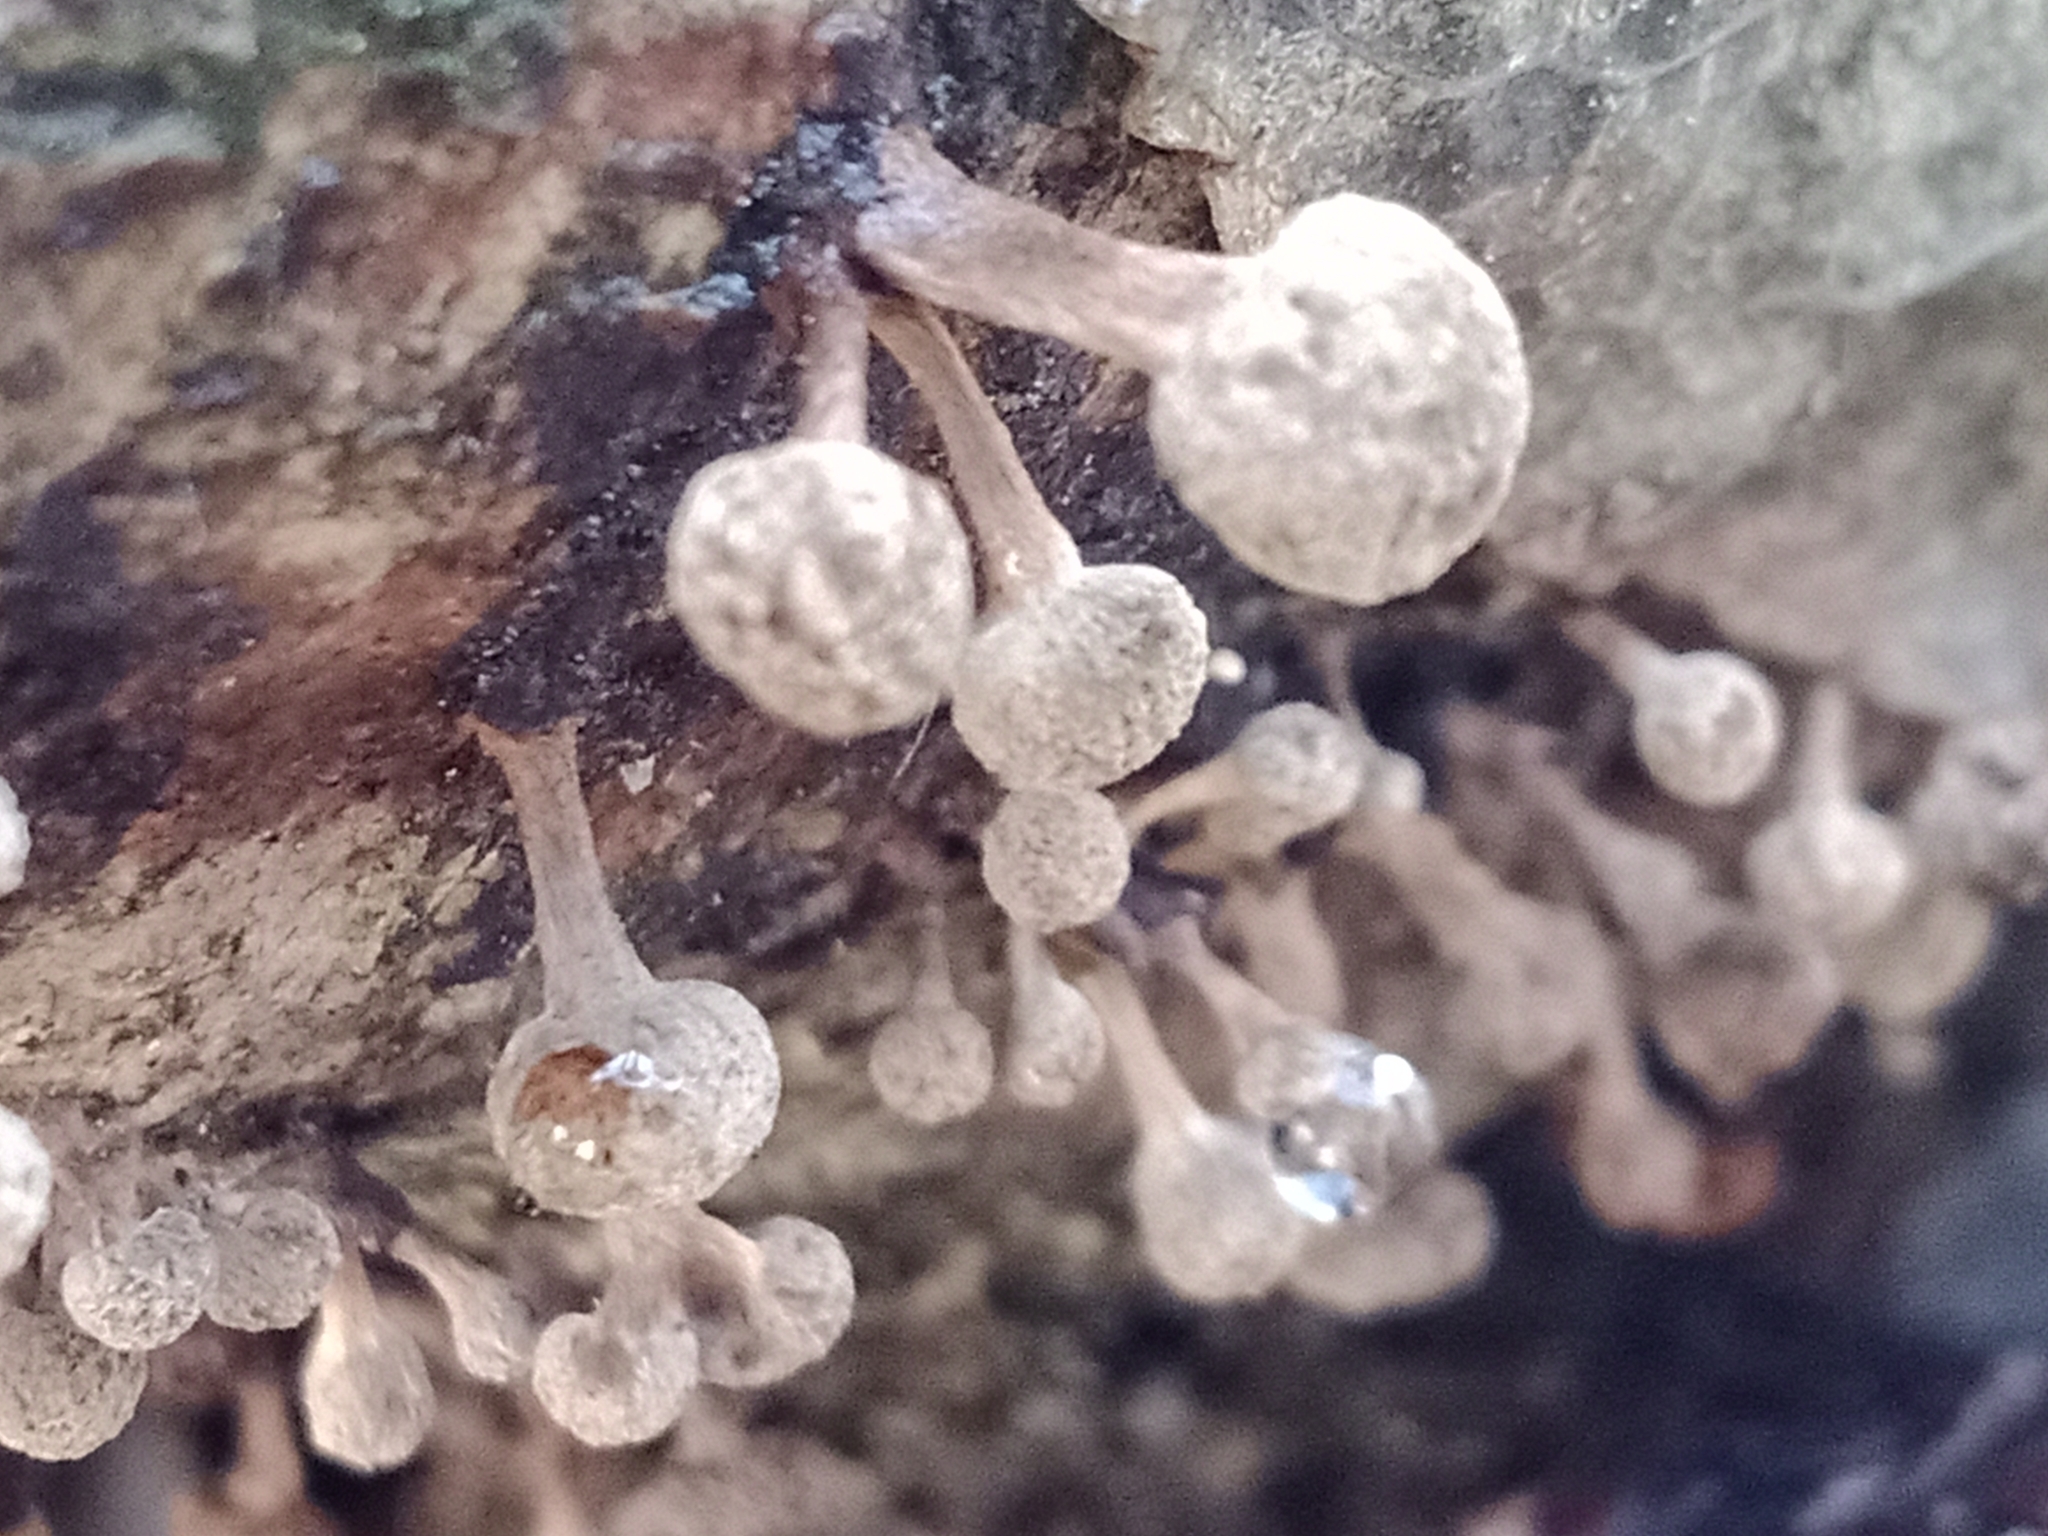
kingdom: Fungi
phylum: Basidiomycota
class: Atractiellomycetes
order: Atractiellales
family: Phleogenaceae
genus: Phleogena
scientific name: Phleogena faginea
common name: Fenugreek stalkball
